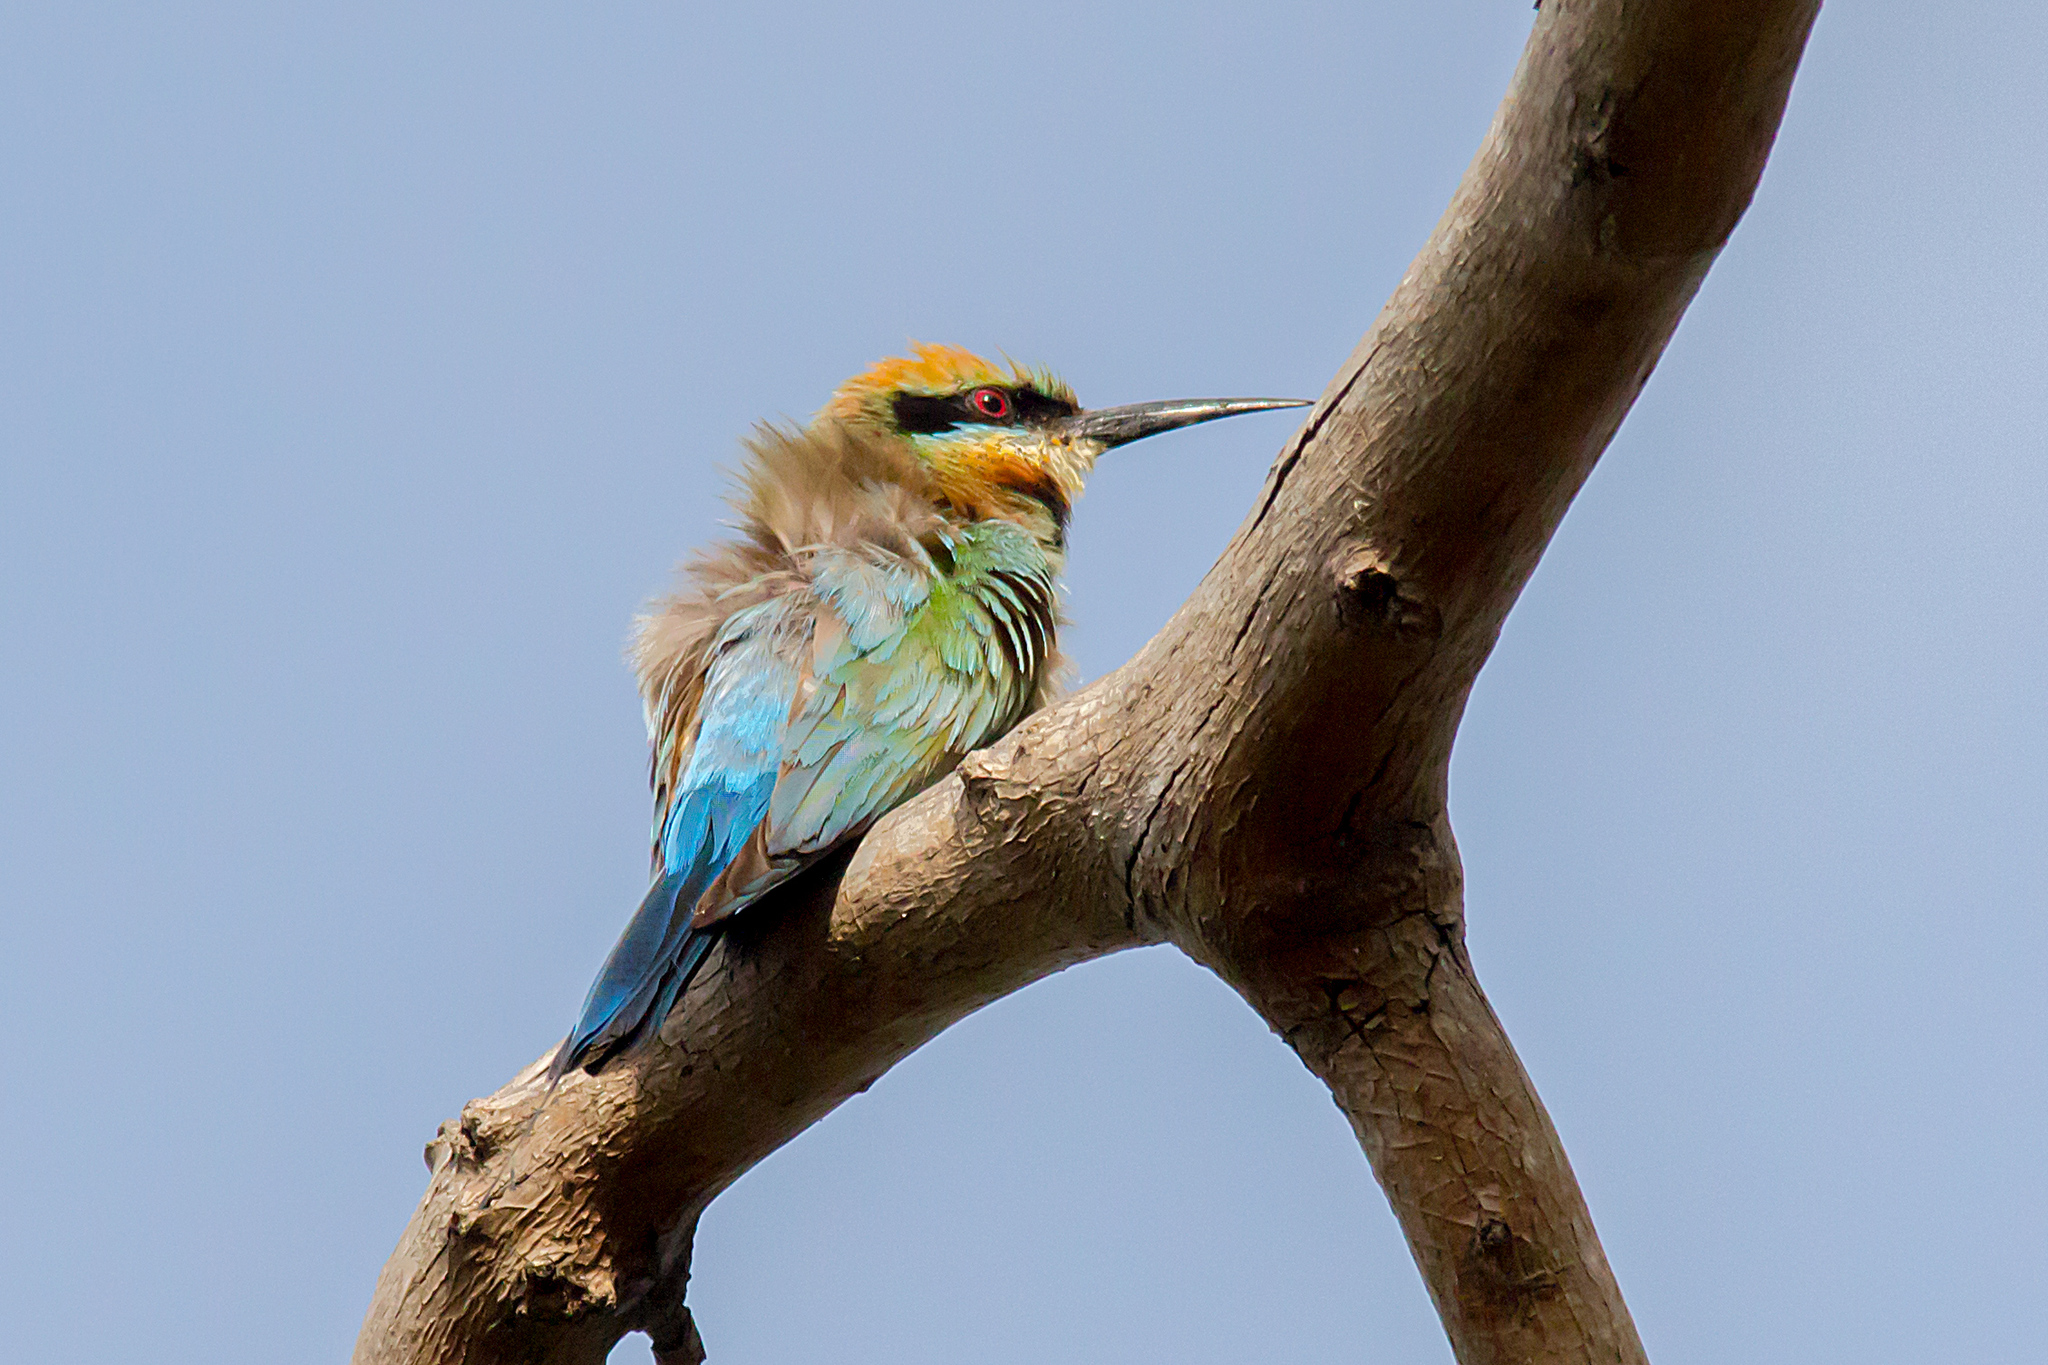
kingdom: Animalia
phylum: Chordata
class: Aves
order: Coraciiformes
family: Meropidae
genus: Merops
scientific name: Merops ornatus
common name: Rainbow bee-eater
